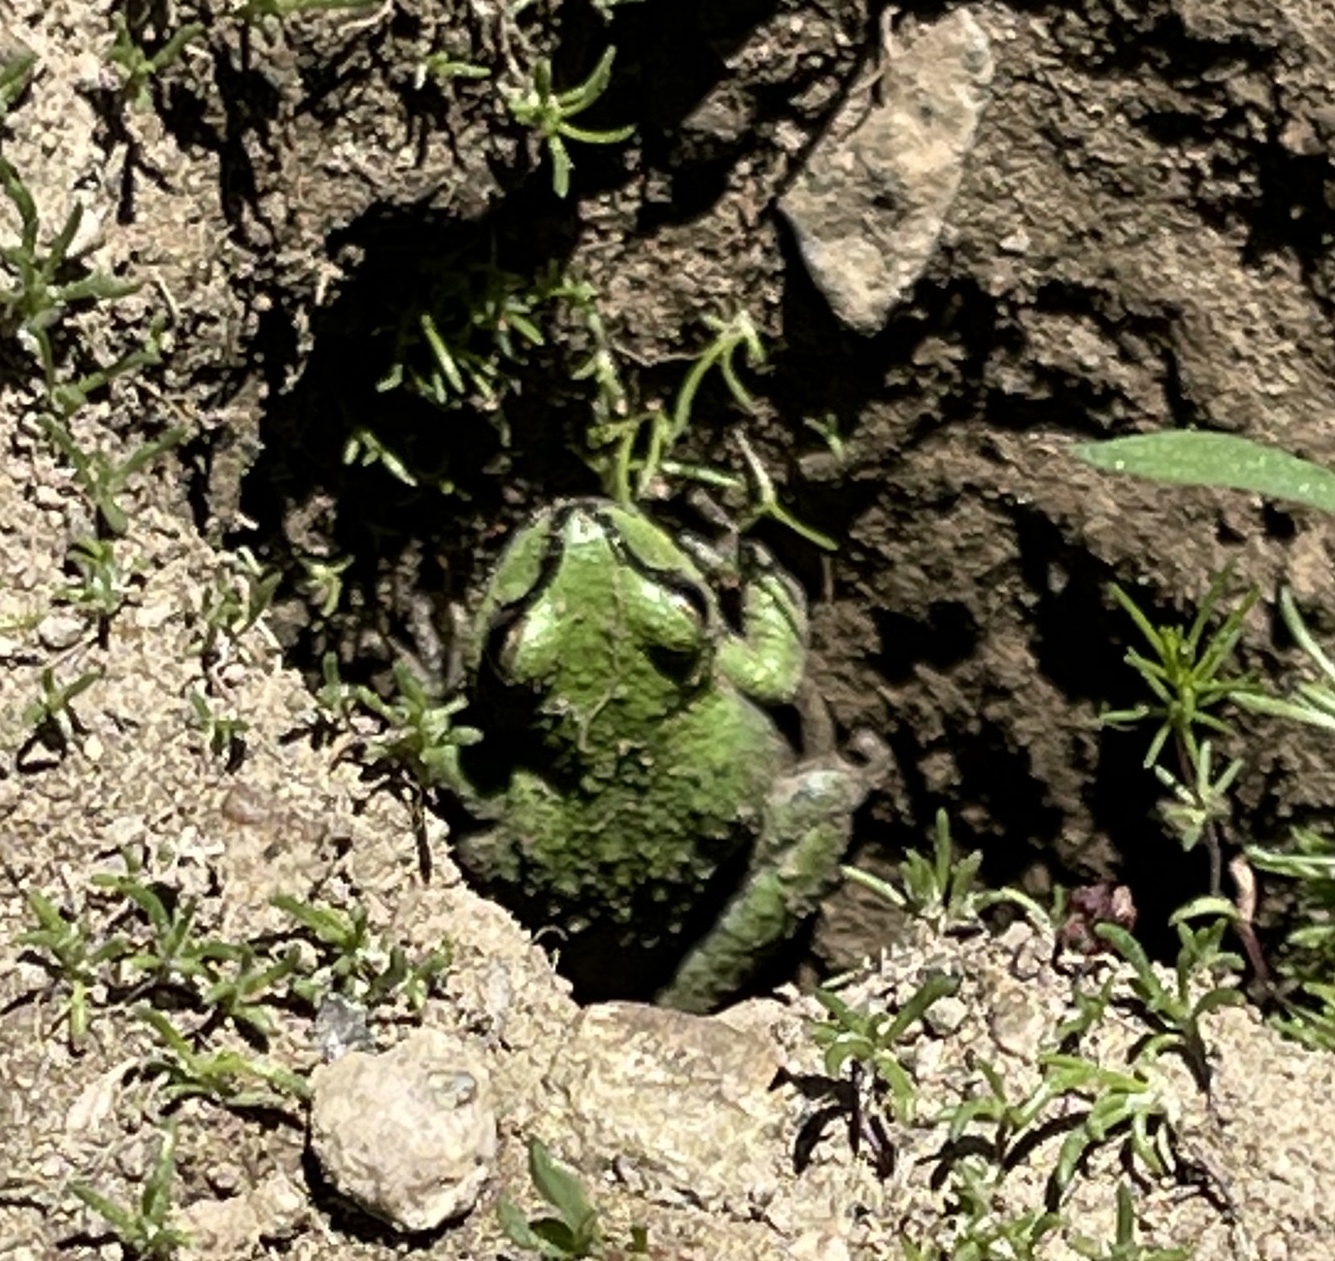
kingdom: Animalia
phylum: Chordata
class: Amphibia
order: Anura
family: Hylidae
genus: Pseudacris
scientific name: Pseudacris regilla
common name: Pacific chorus frog
